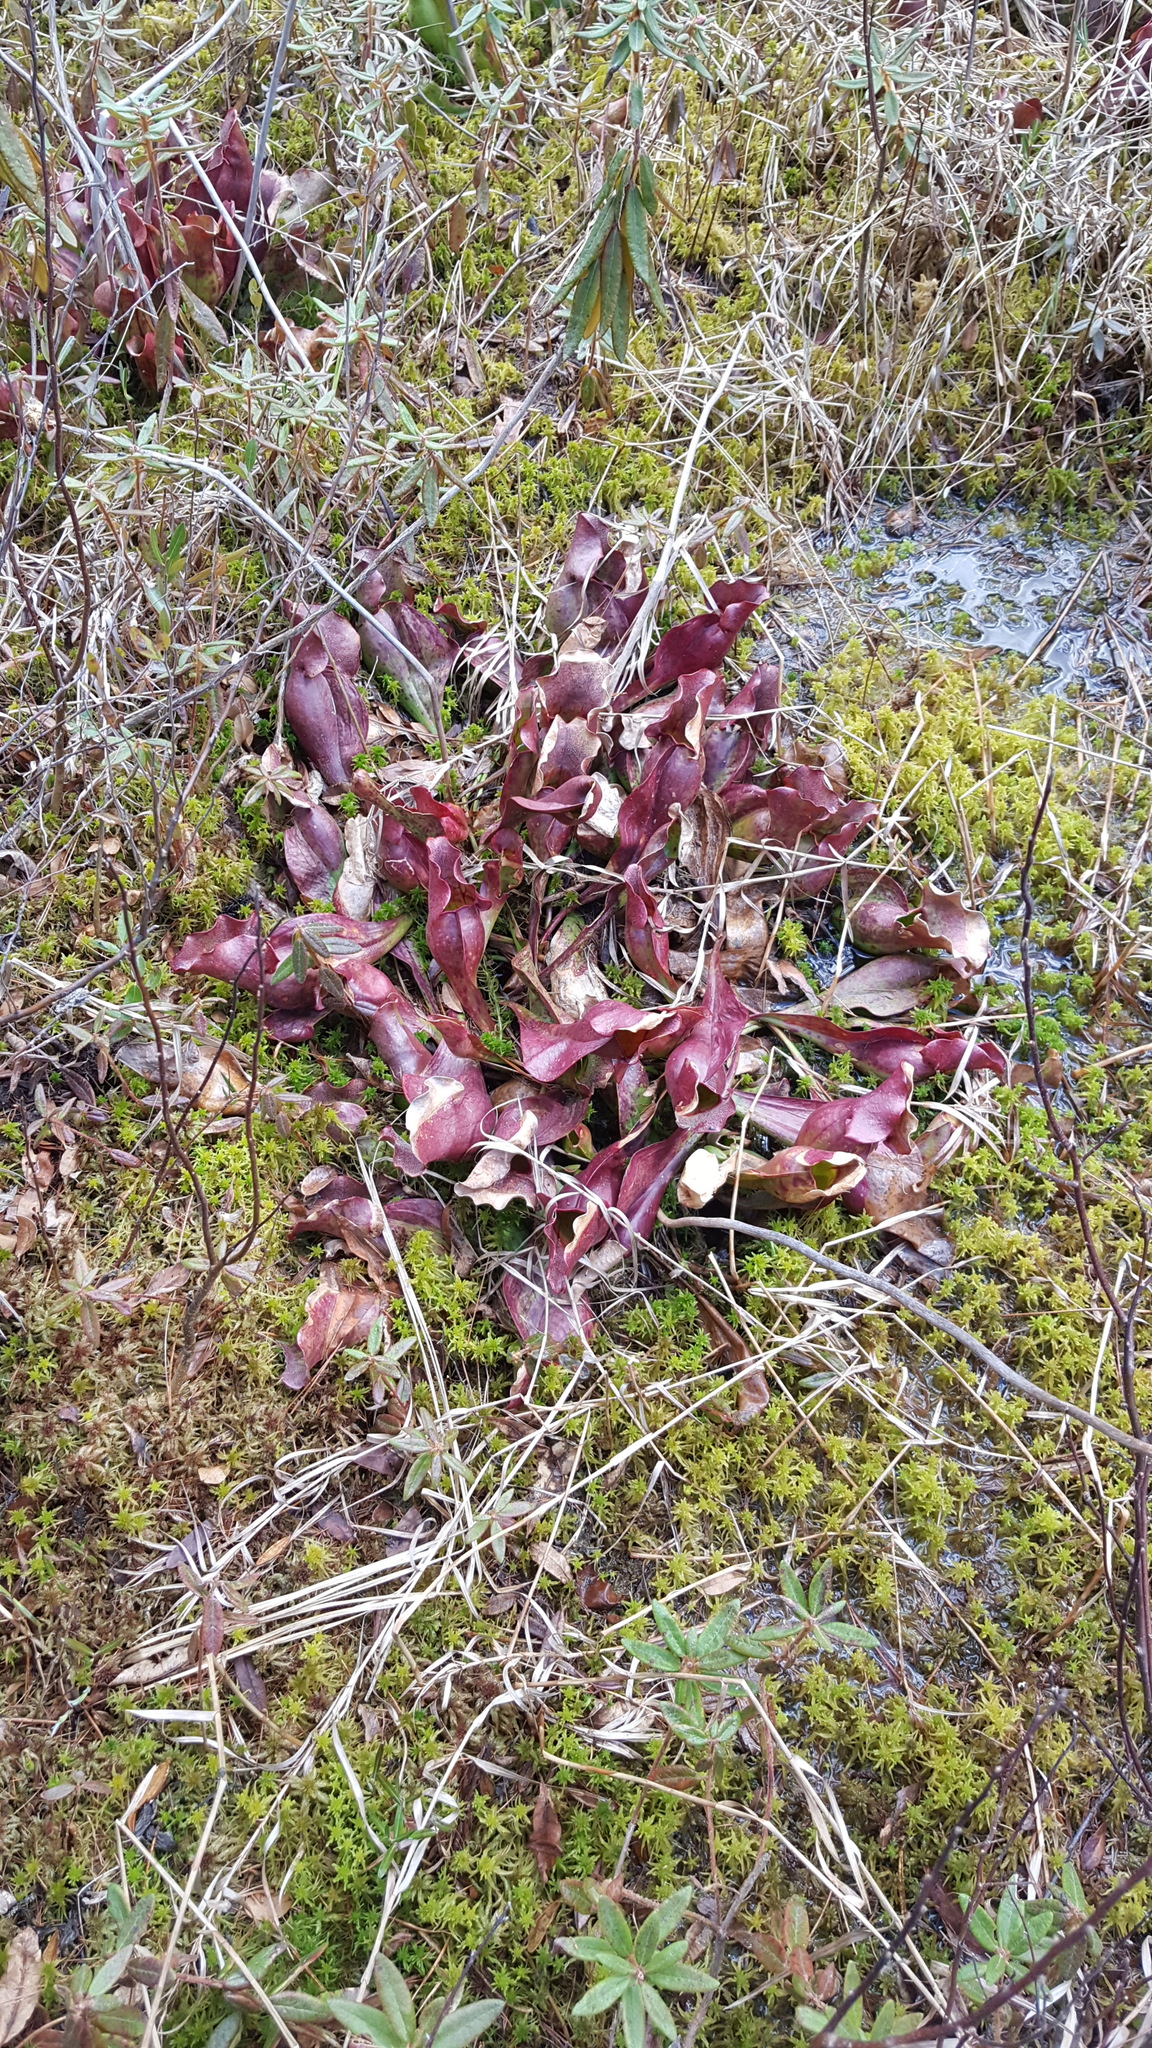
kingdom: Plantae
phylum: Tracheophyta
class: Magnoliopsida
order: Ericales
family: Sarraceniaceae
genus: Sarracenia
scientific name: Sarracenia purpurea
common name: Pitcherplant
